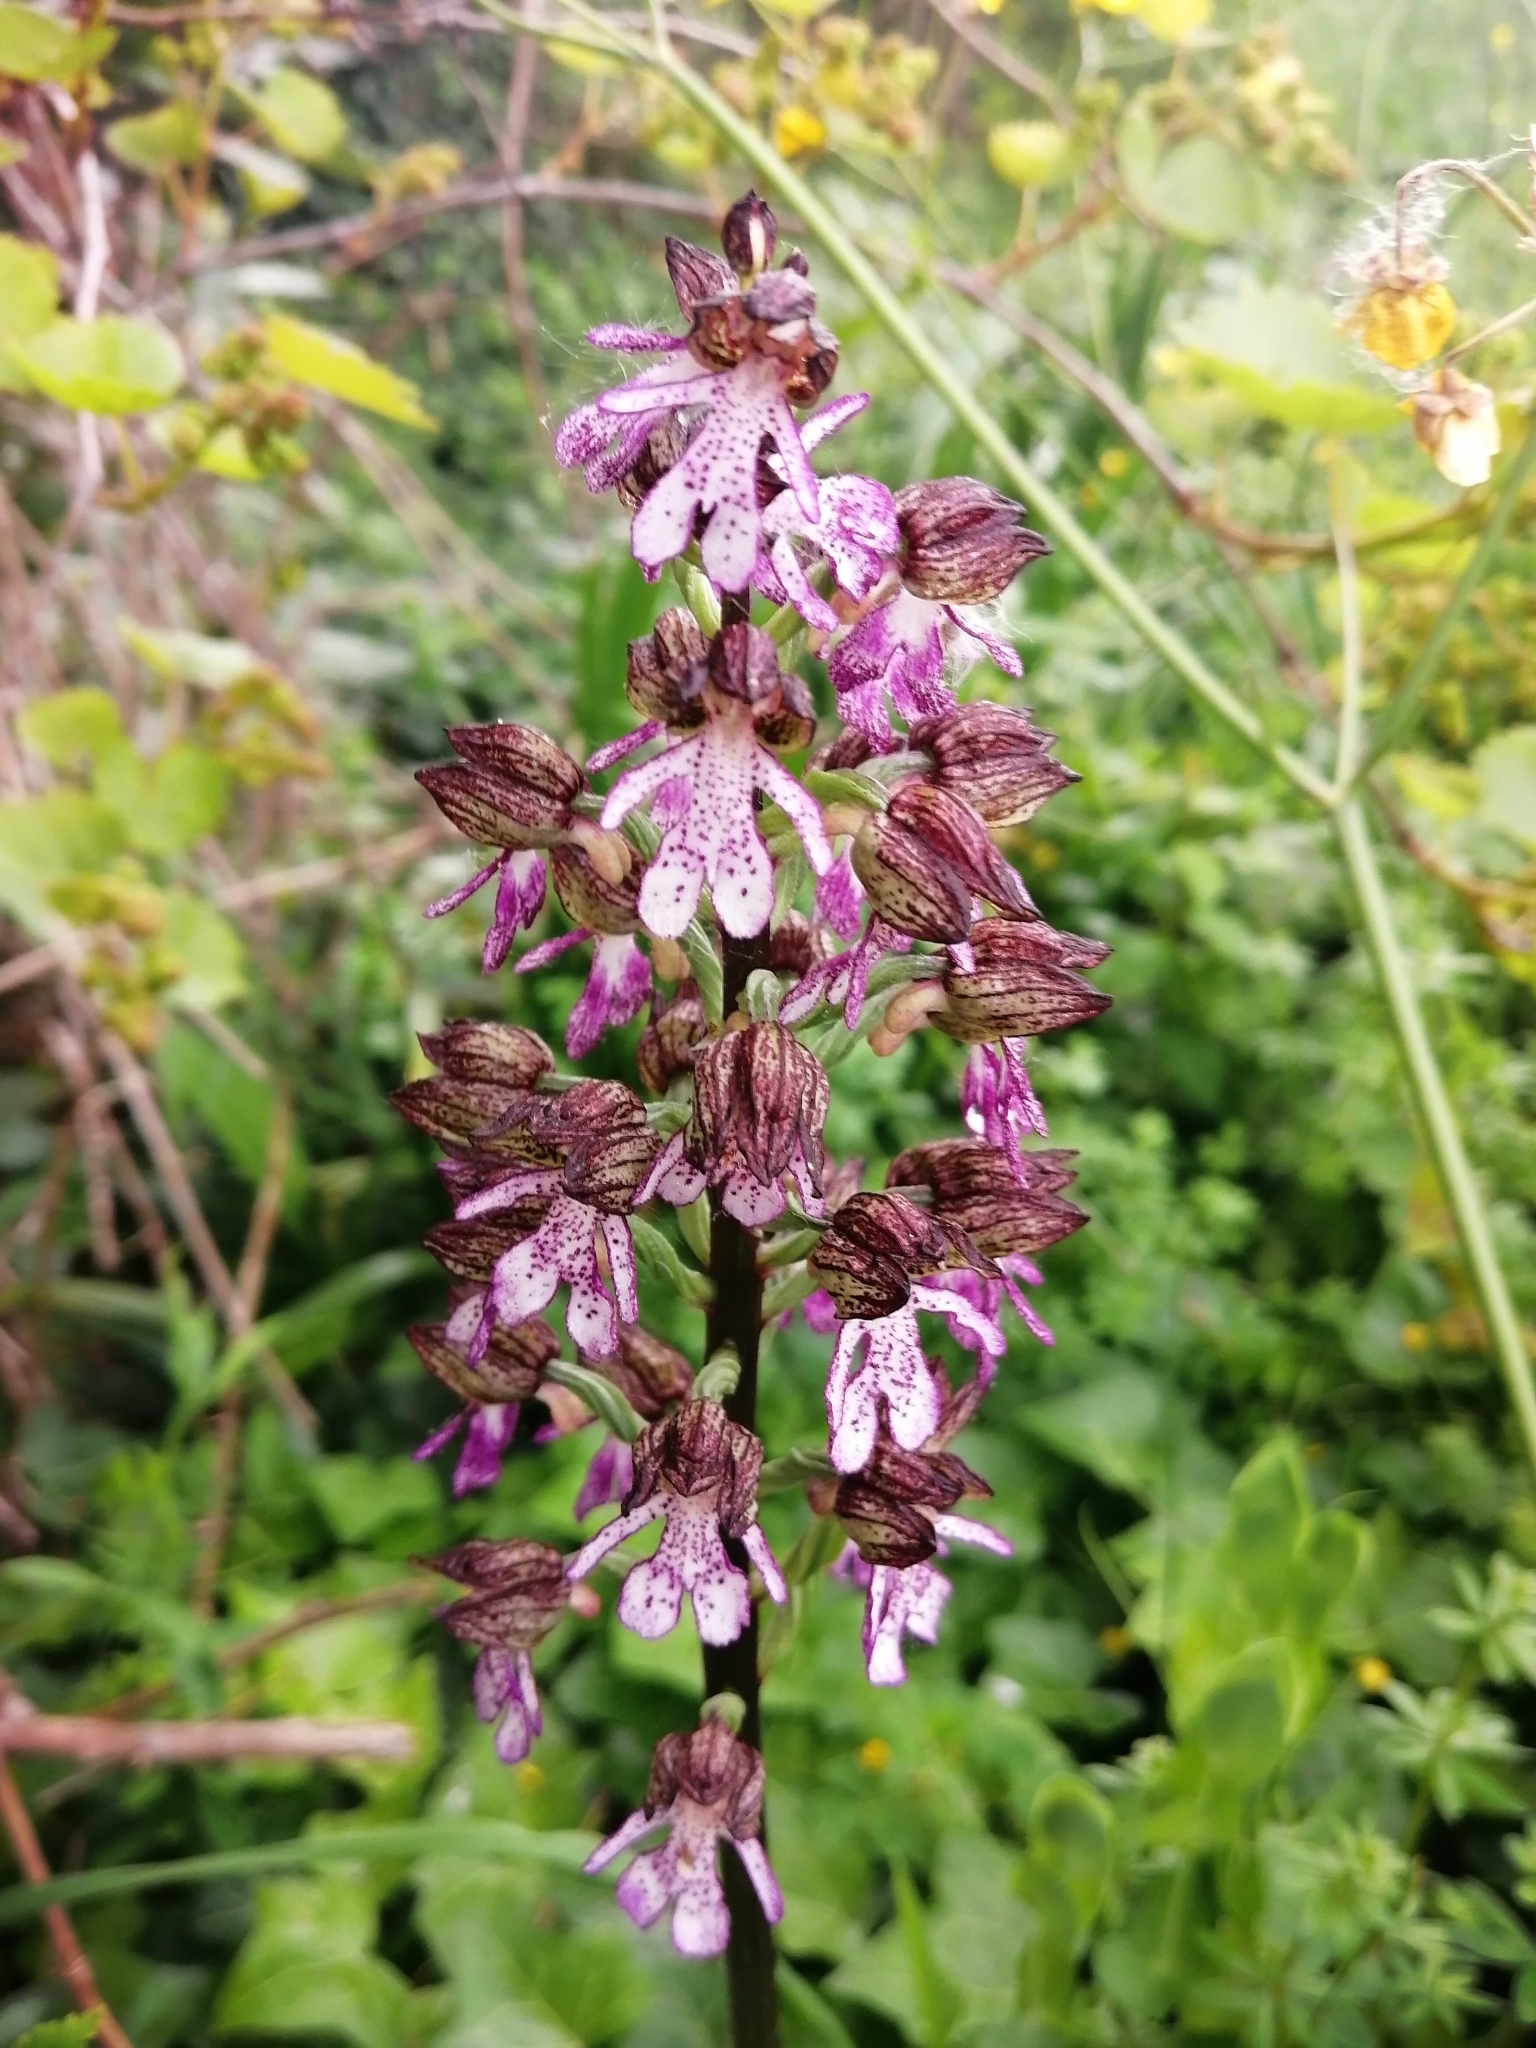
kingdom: Plantae
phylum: Tracheophyta
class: Liliopsida
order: Asparagales
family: Orchidaceae
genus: Orchis
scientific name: Orchis purpurea
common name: Lady orchid
